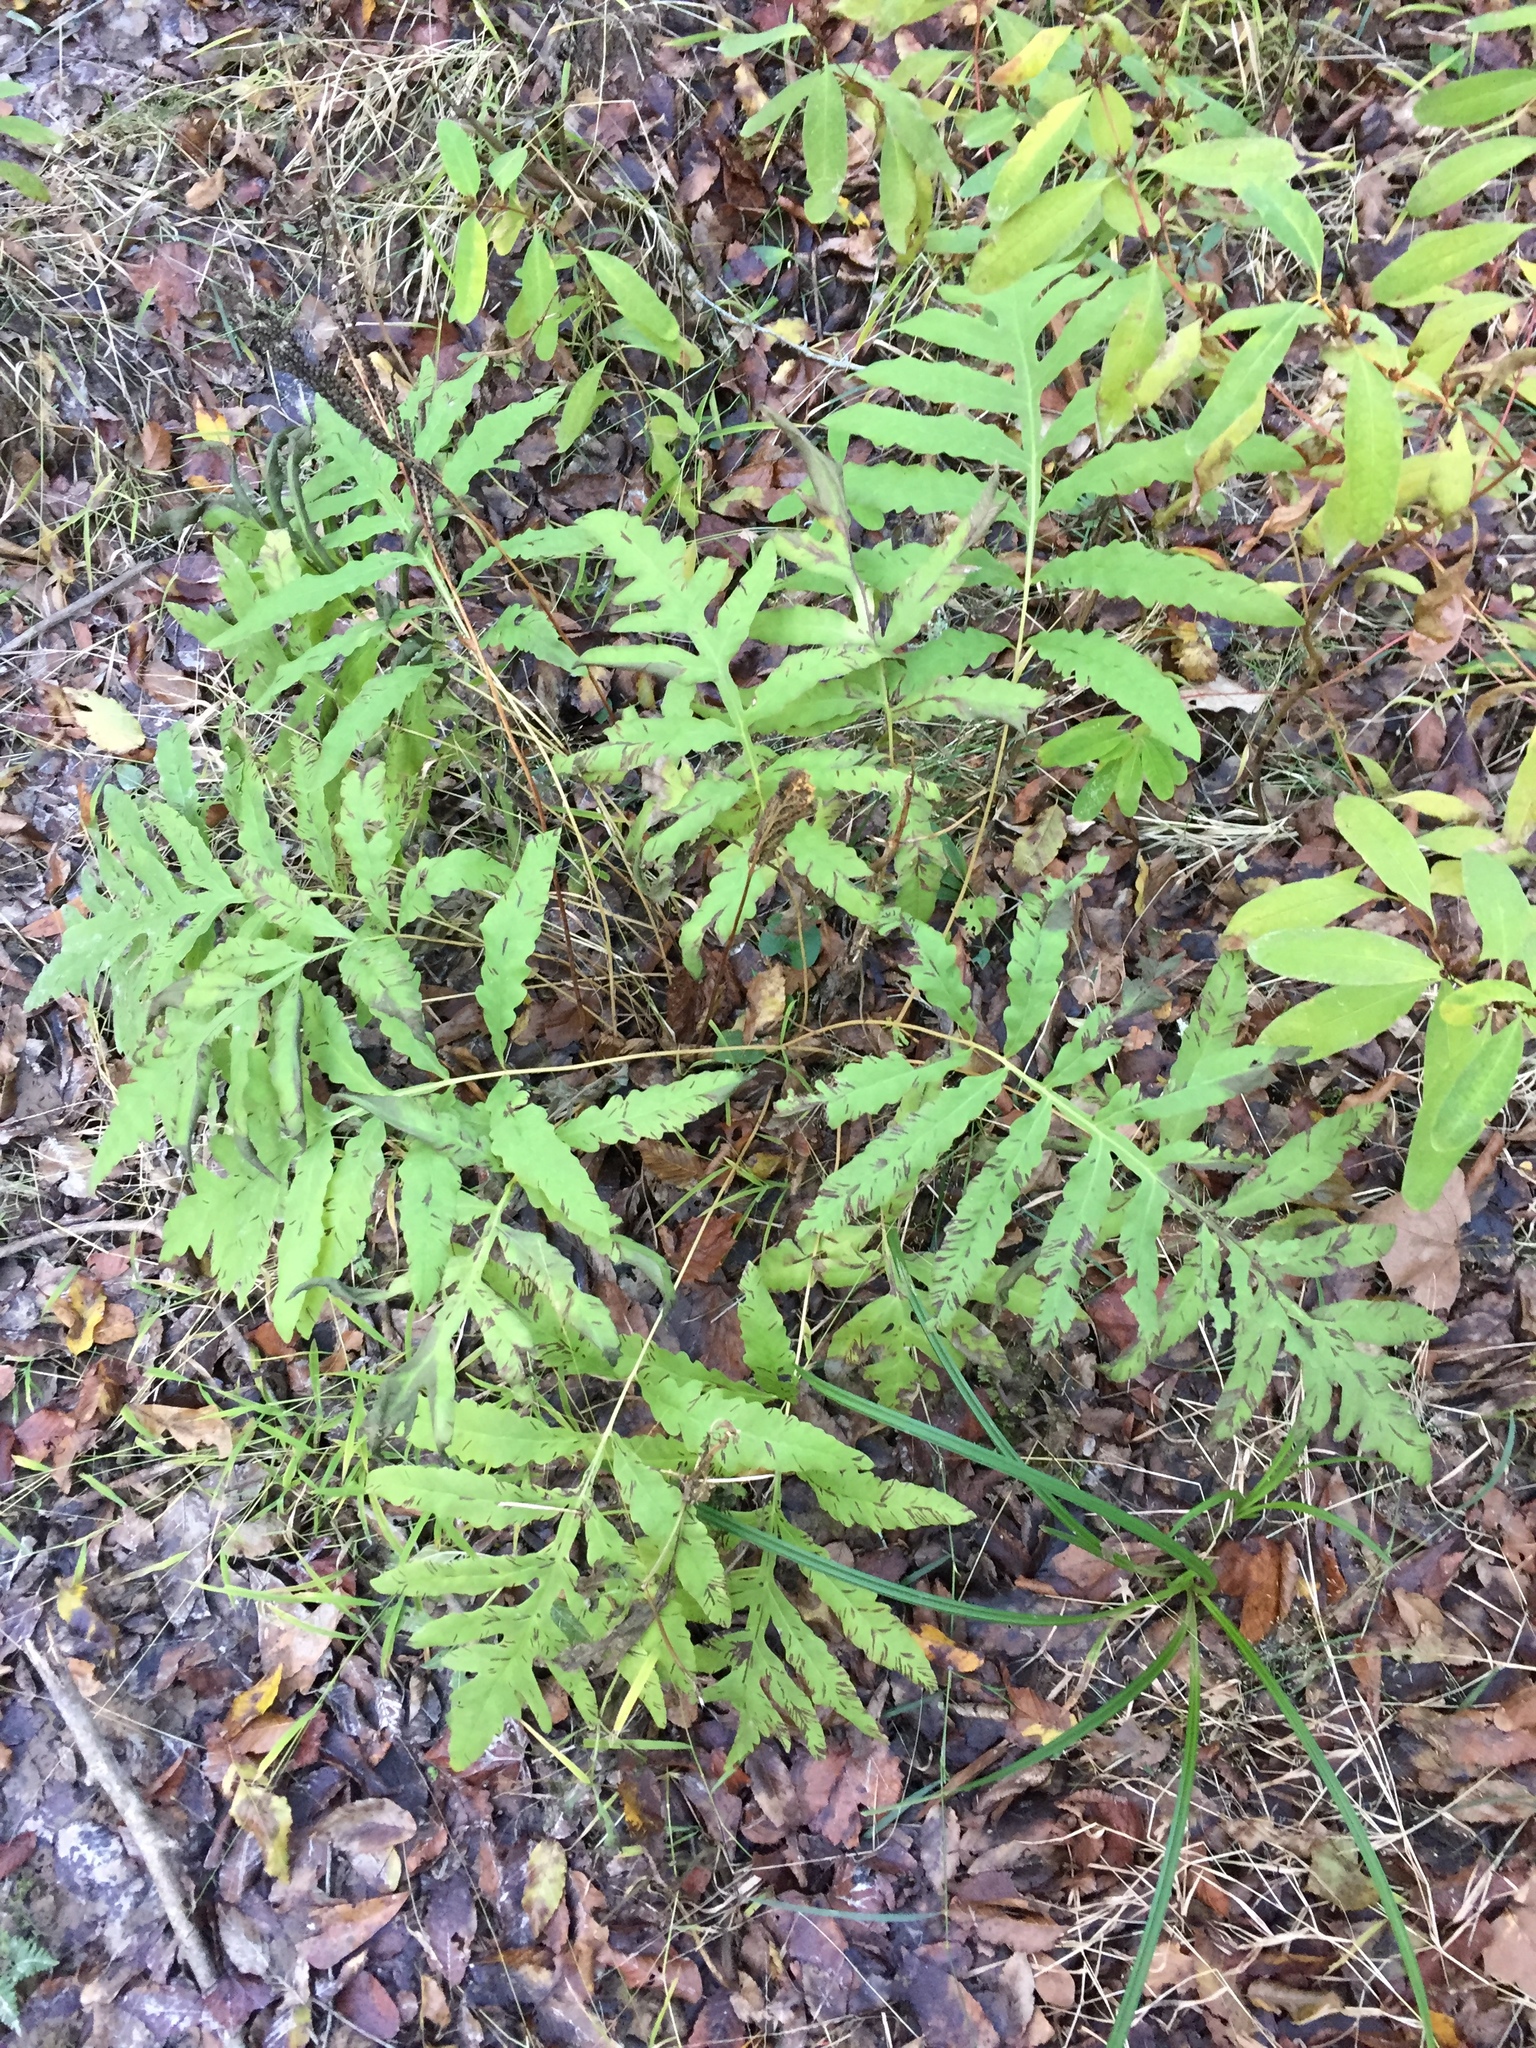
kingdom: Plantae
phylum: Tracheophyta
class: Polypodiopsida
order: Polypodiales
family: Onocleaceae
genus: Onoclea
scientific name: Onoclea sensibilis
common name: Sensitive fern
